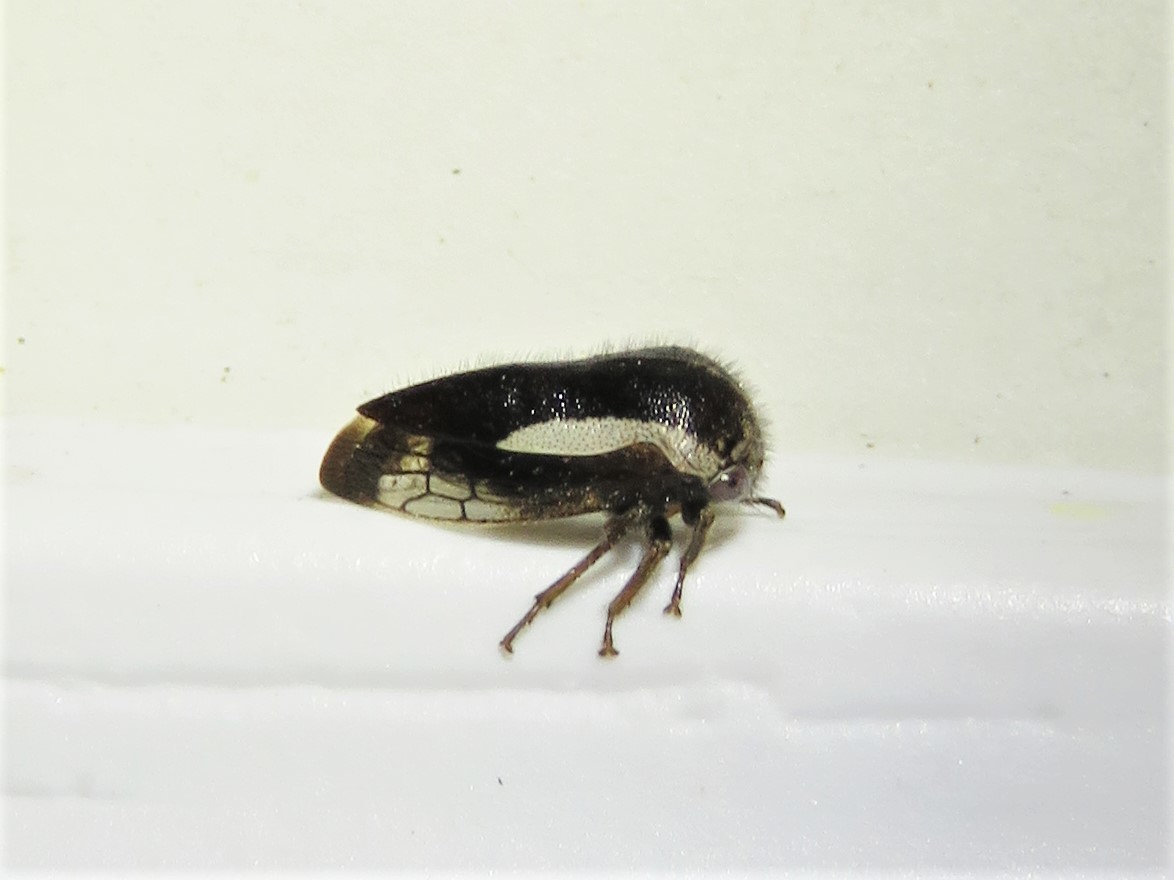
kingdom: Animalia
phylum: Arthropoda
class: Insecta
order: Hemiptera
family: Membracidae
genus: Ophiderma
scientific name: Ophiderma flavicephala
